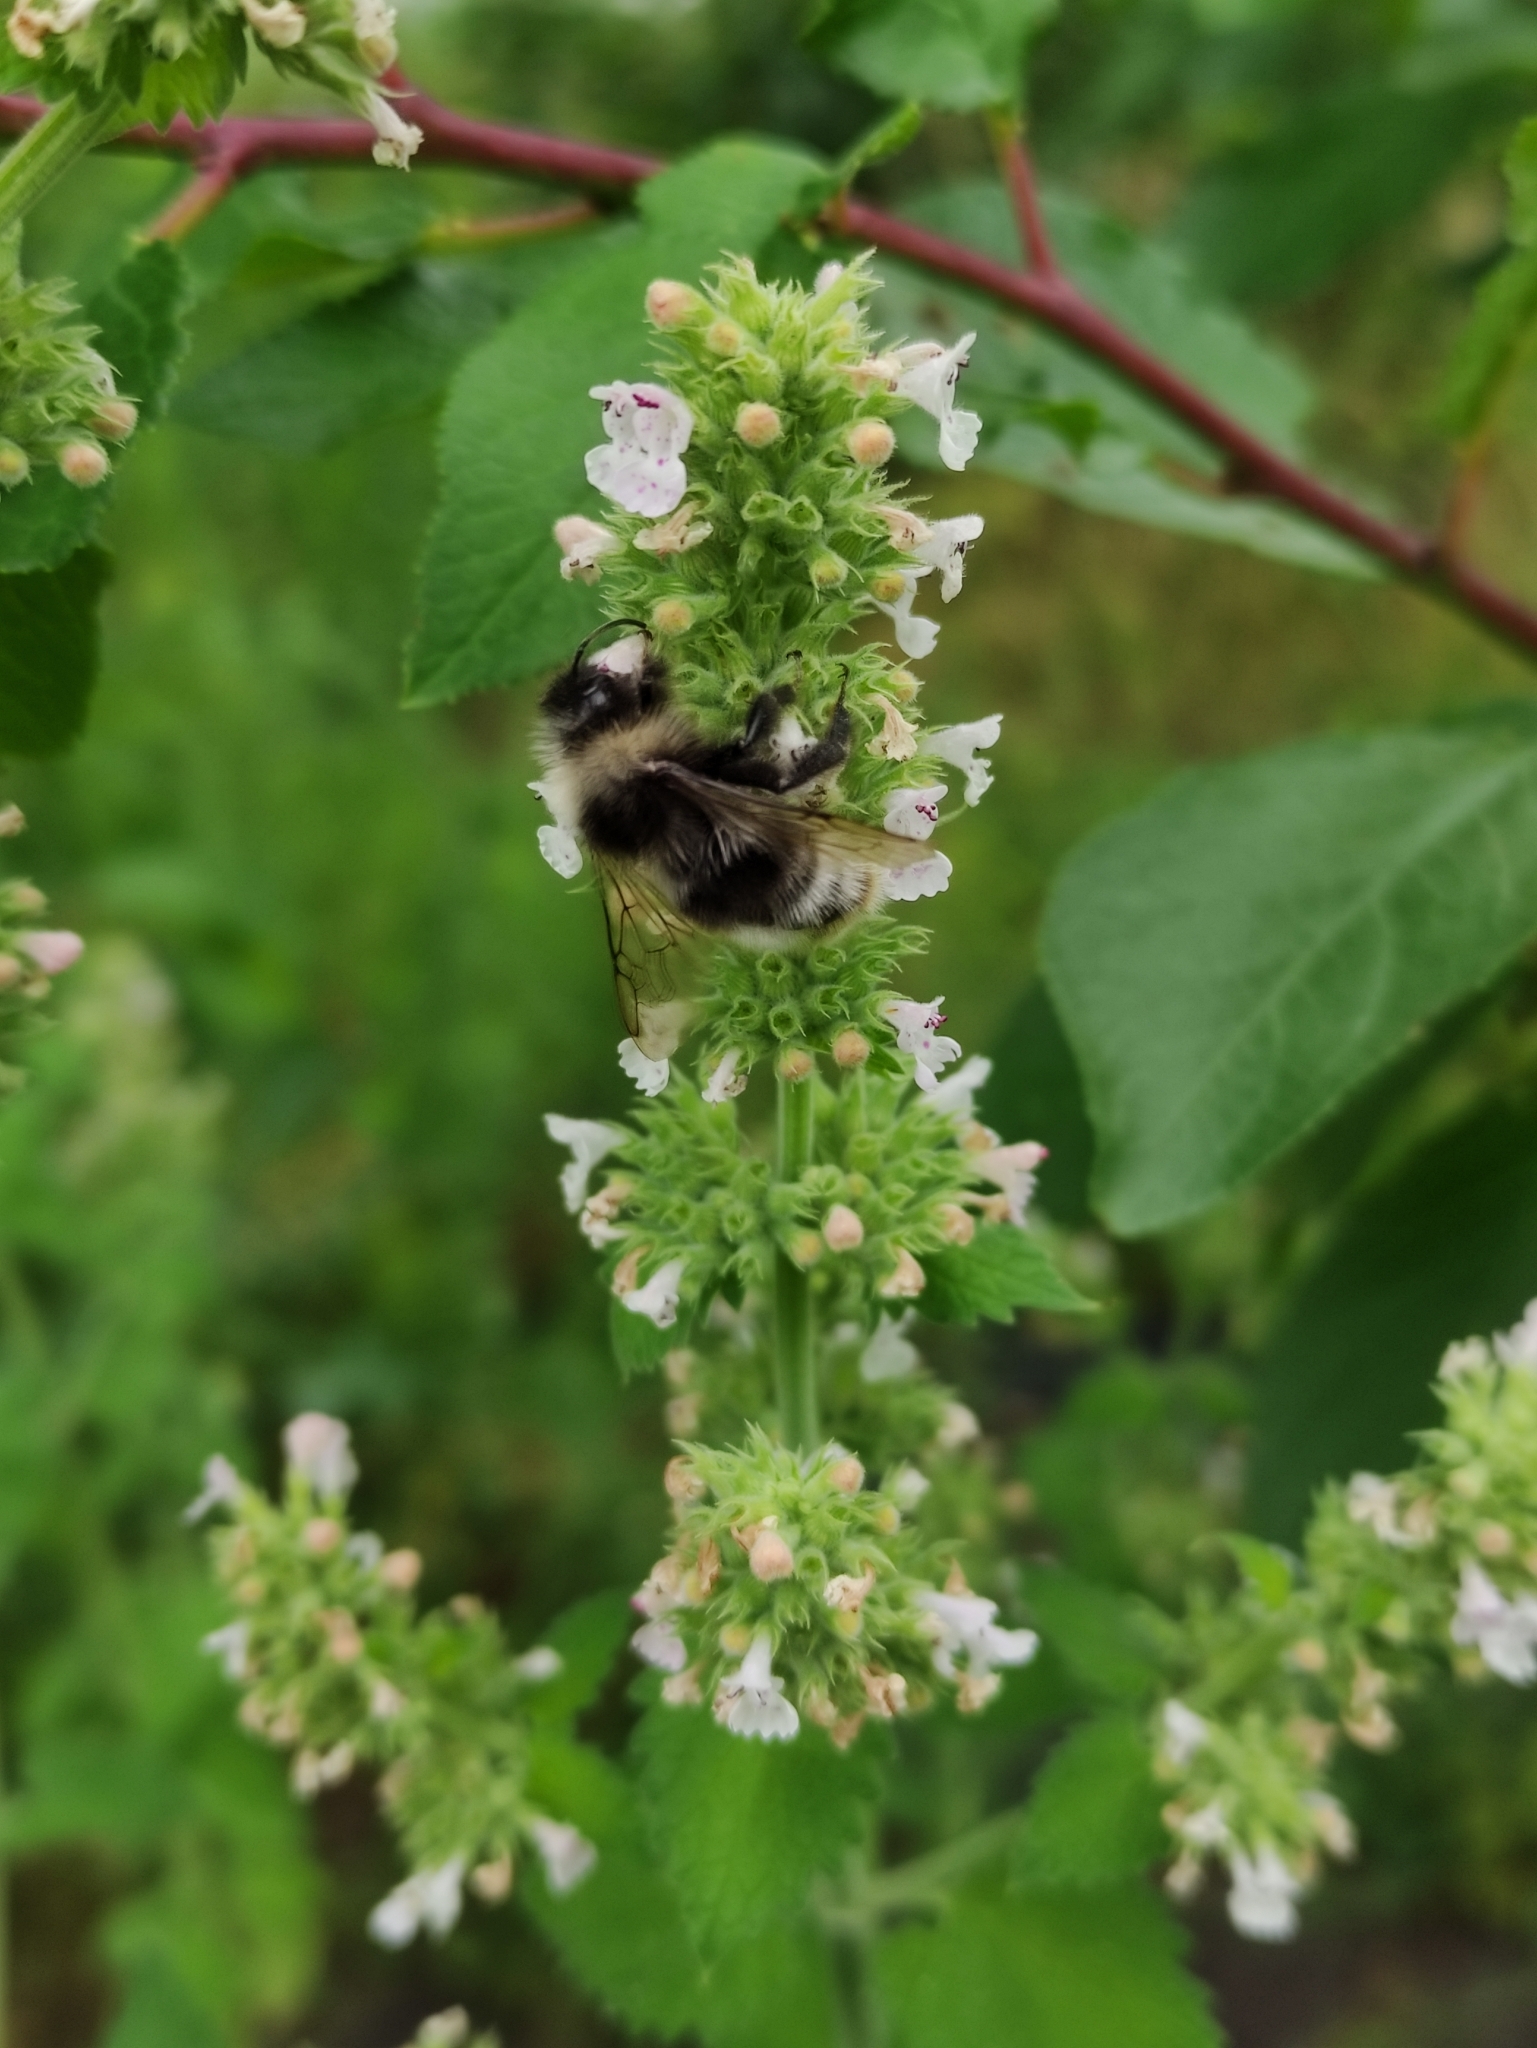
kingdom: Animalia
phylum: Arthropoda
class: Insecta
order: Hymenoptera
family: Apidae
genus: Bombus
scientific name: Bombus
